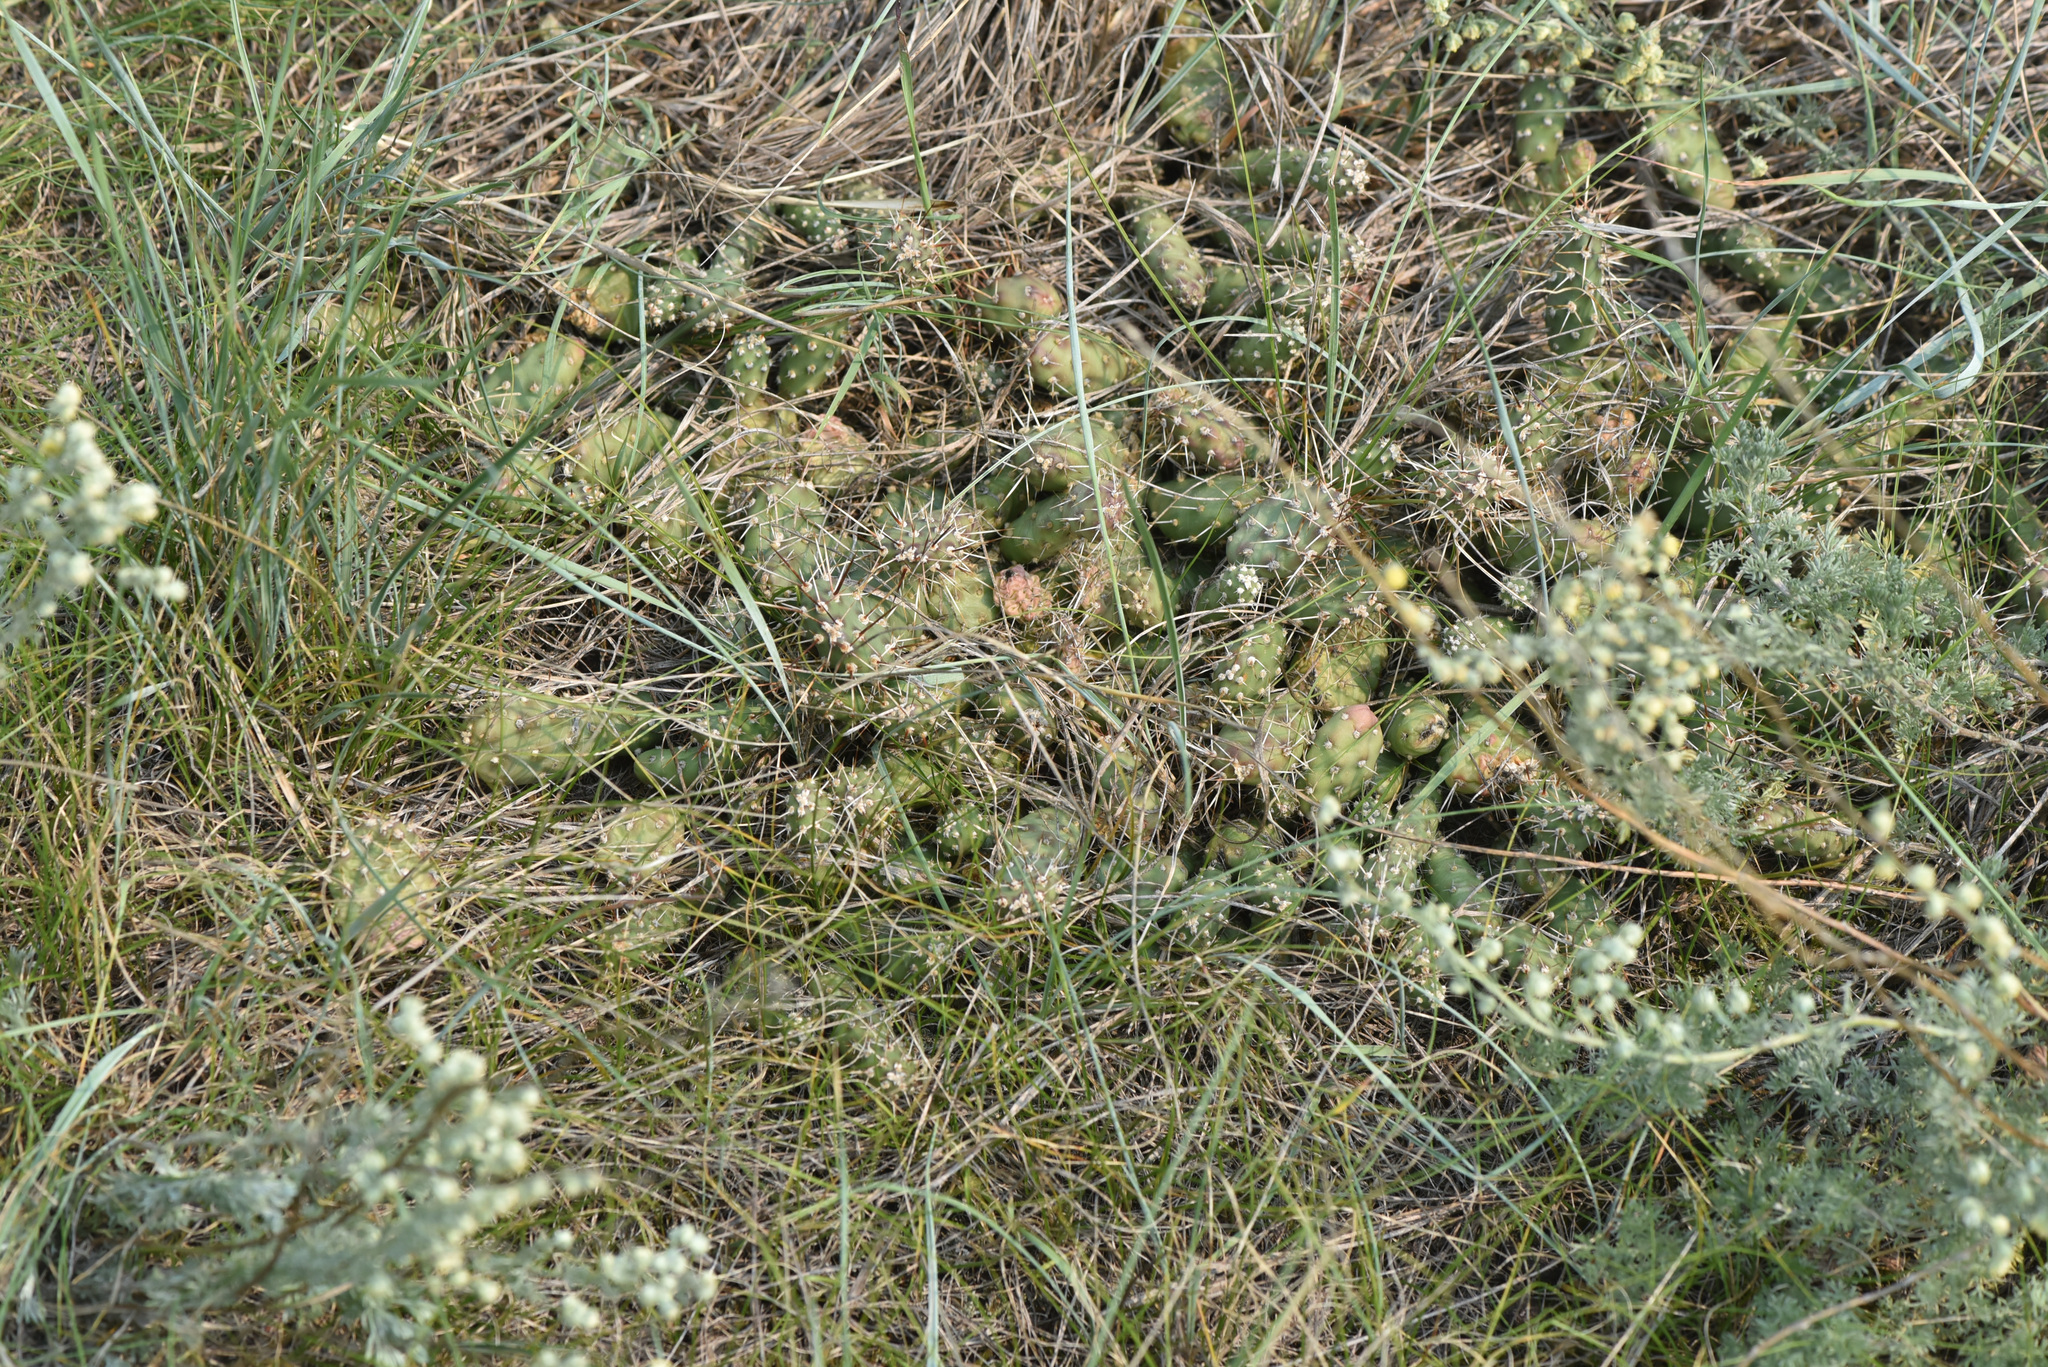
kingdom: Plantae
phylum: Tracheophyta
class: Magnoliopsida
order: Caryophyllales
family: Cactaceae
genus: Opuntia
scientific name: Opuntia fragilis
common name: Brittle cactus
